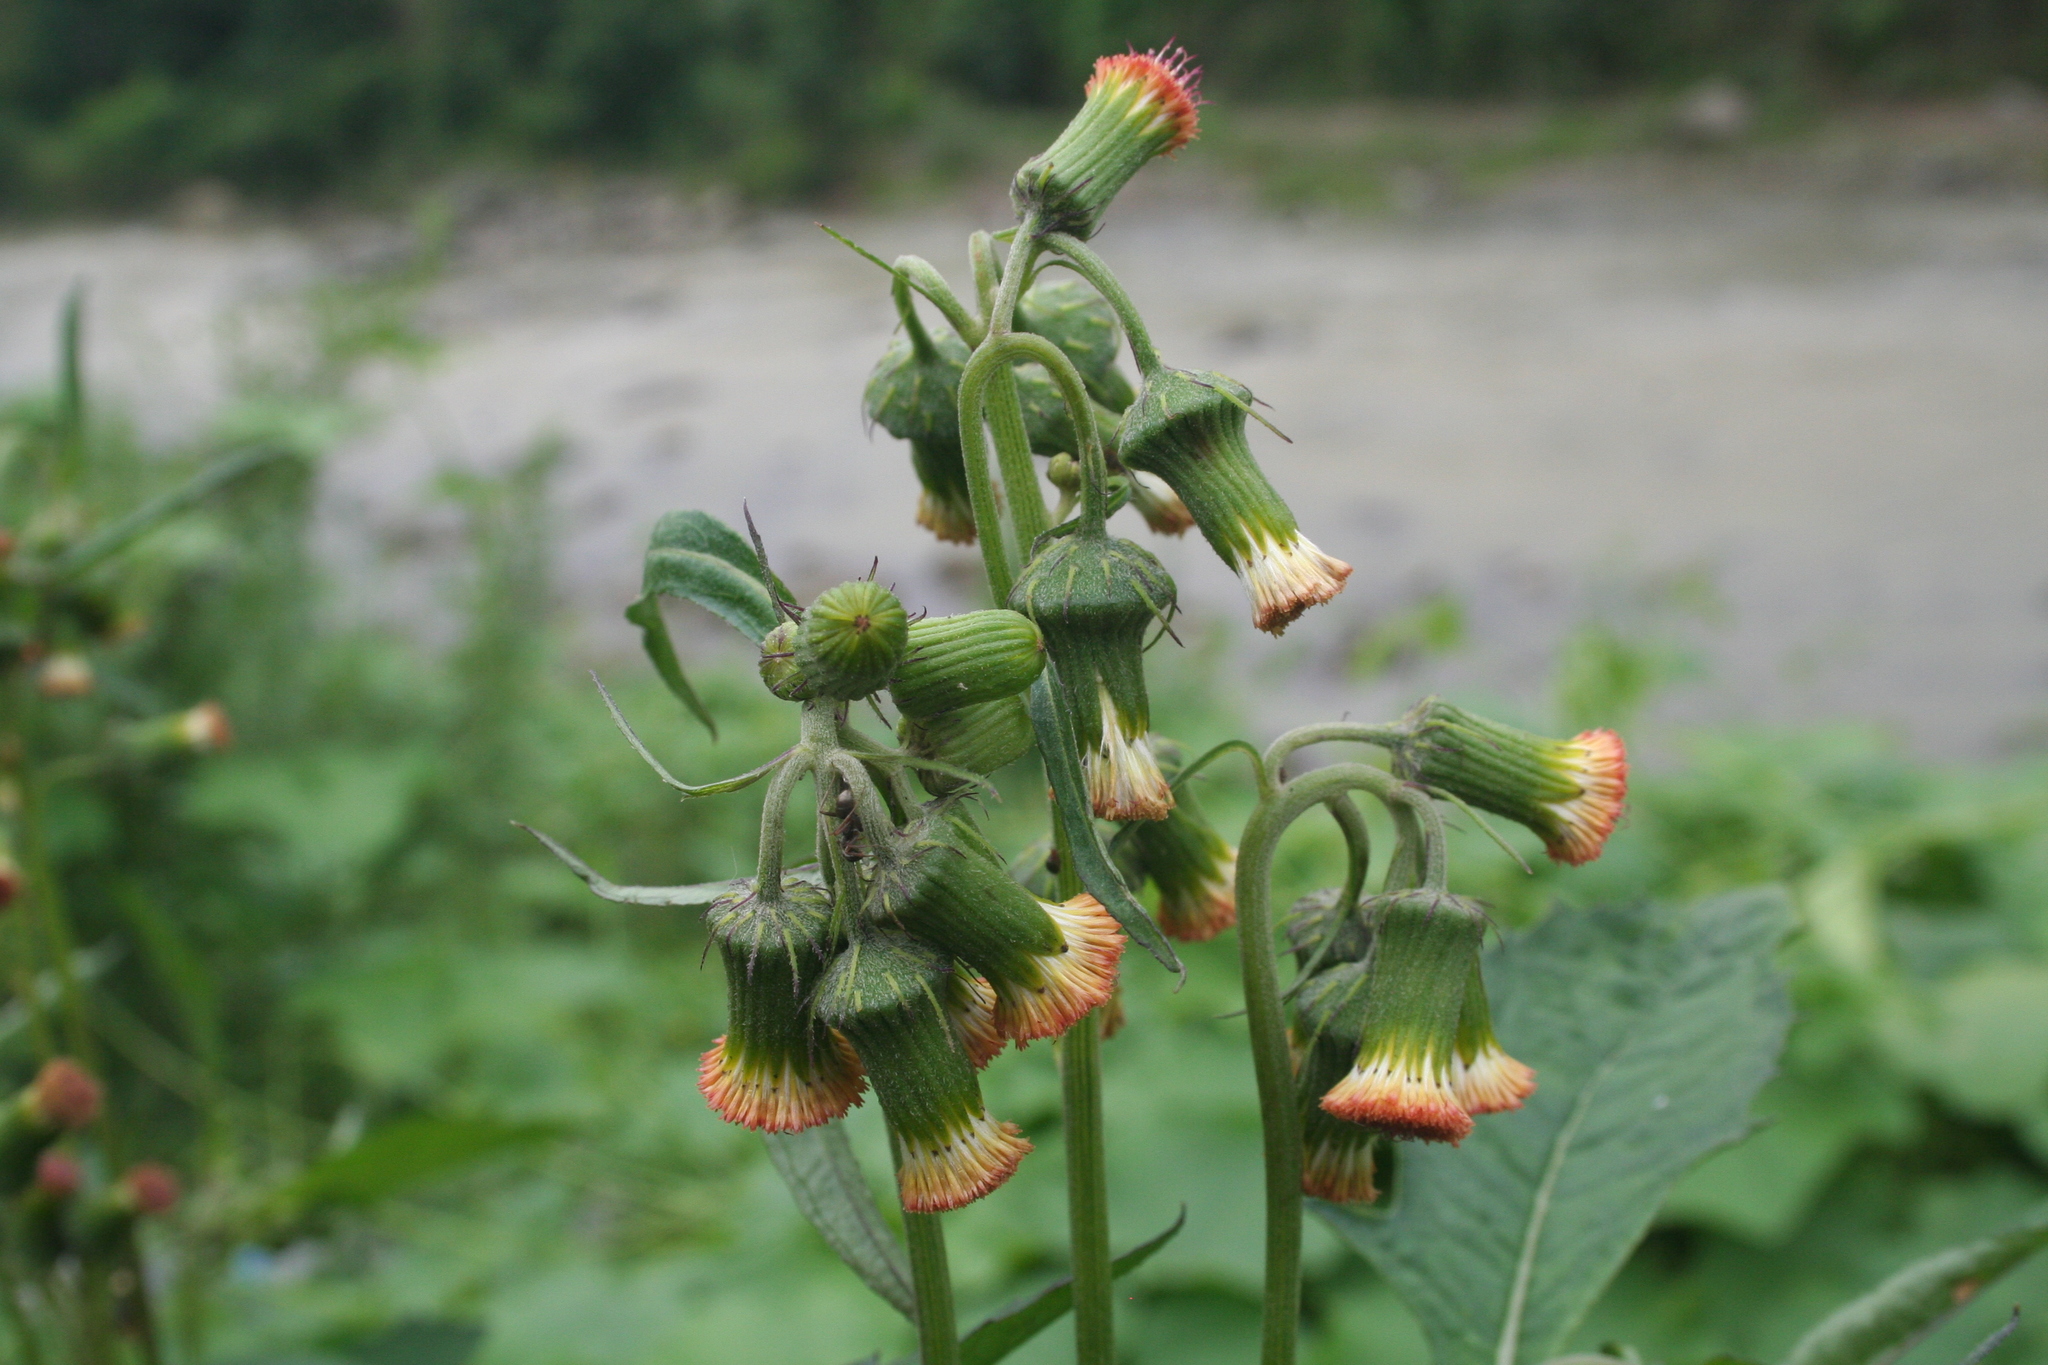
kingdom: Plantae
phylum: Tracheophyta
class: Magnoliopsida
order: Asterales
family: Asteraceae
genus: Crassocephalum
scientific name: Crassocephalum crepidioides
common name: Redflower ragleaf
